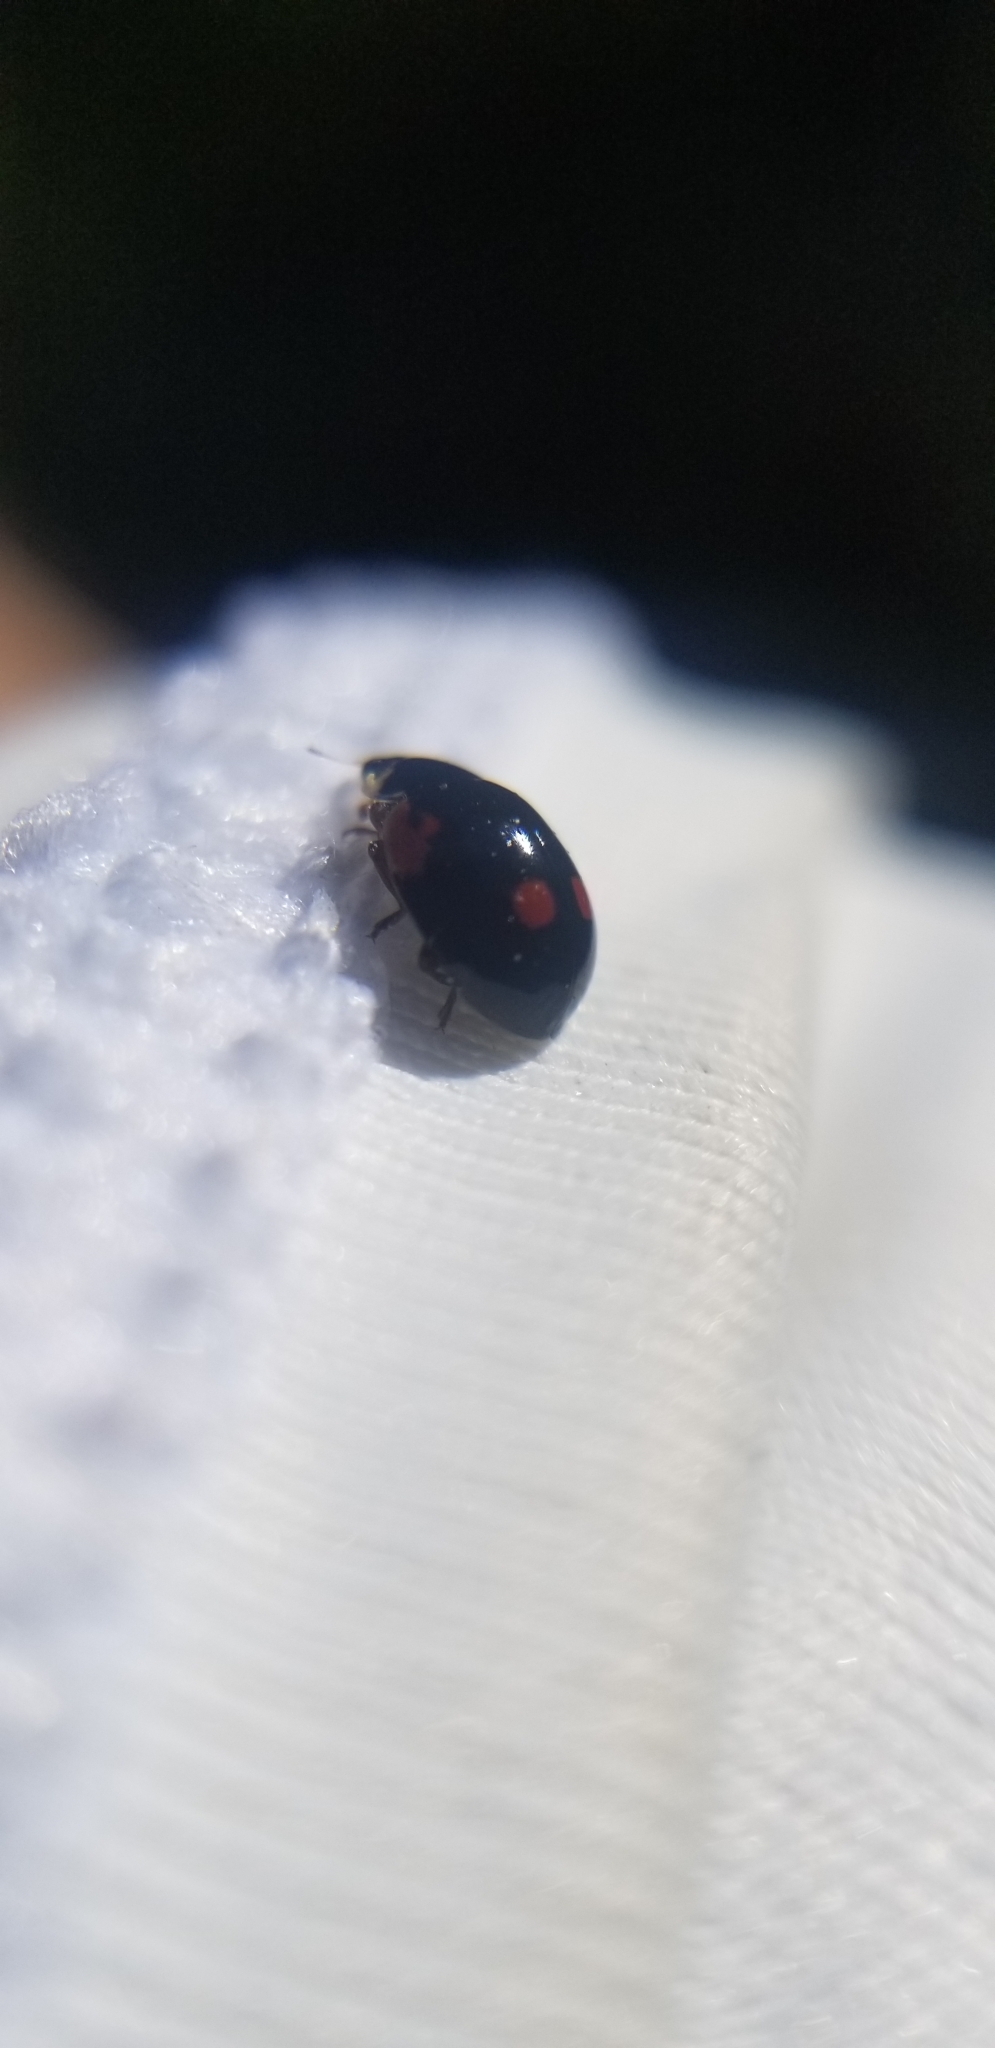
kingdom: Animalia
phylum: Arthropoda
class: Insecta
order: Coleoptera
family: Coccinellidae
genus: Adalia
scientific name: Adalia bipunctata
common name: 2-spot ladybird
